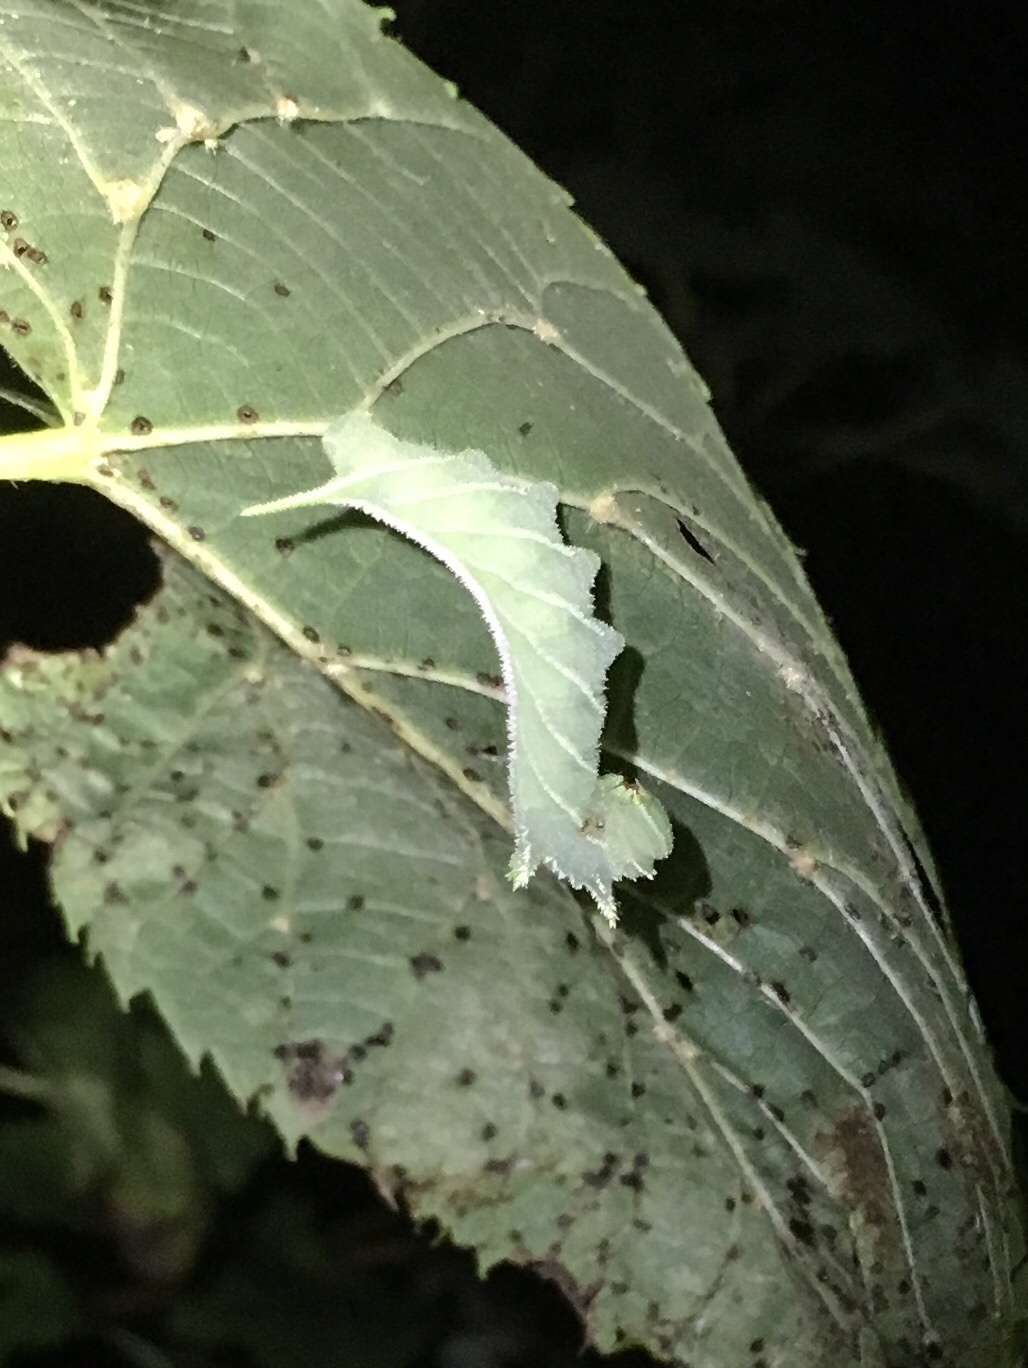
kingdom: Animalia
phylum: Arthropoda
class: Insecta
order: Lepidoptera
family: Sphingidae
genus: Ceratomia
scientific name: Ceratomia amyntor
